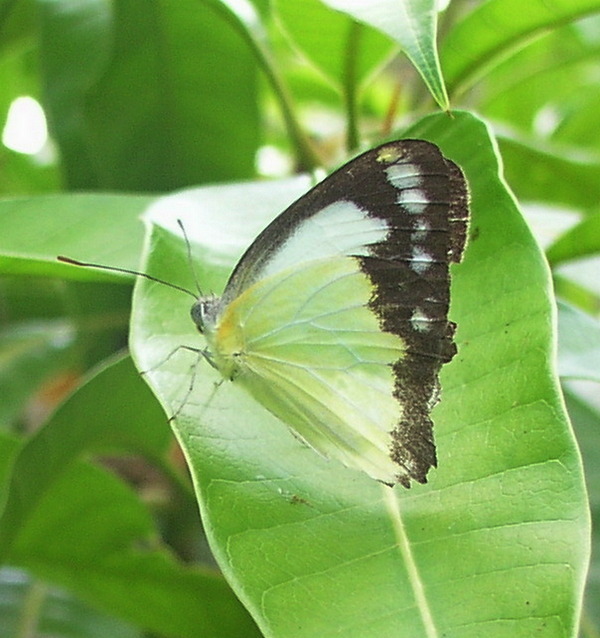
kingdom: Animalia
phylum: Arthropoda
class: Insecta
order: Lepidoptera
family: Pieridae
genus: Cepora
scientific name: Cepora perimale
